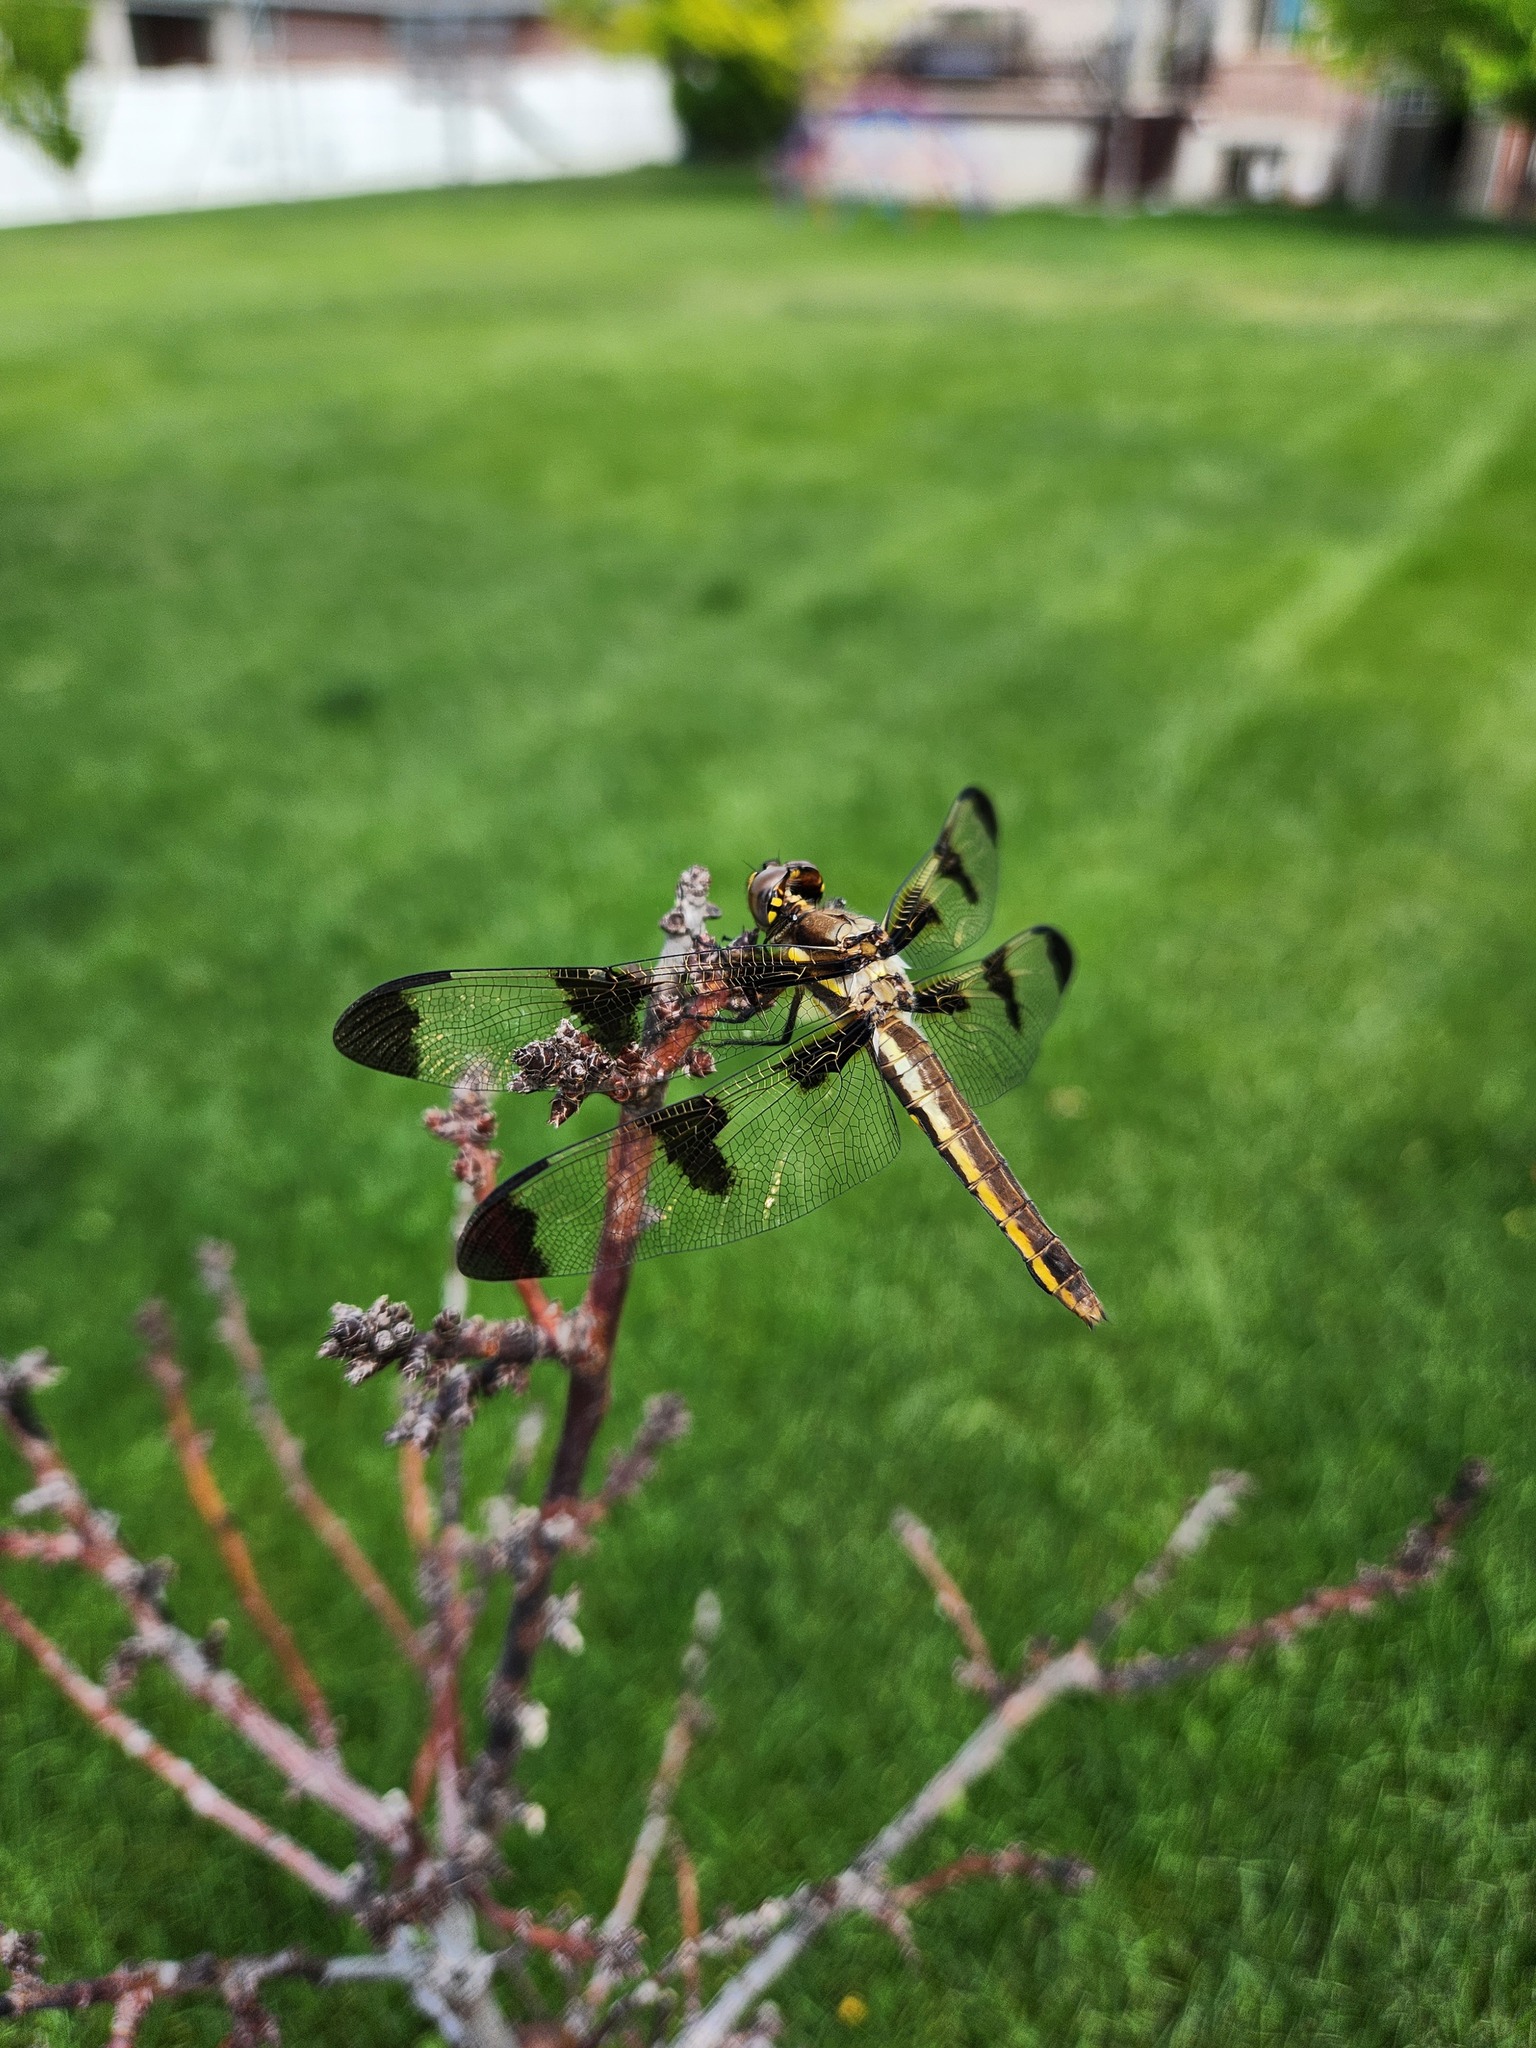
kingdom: Animalia
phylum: Arthropoda
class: Insecta
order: Odonata
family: Libellulidae
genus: Libellula
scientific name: Libellula pulchella
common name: Twelve-spotted skimmer
